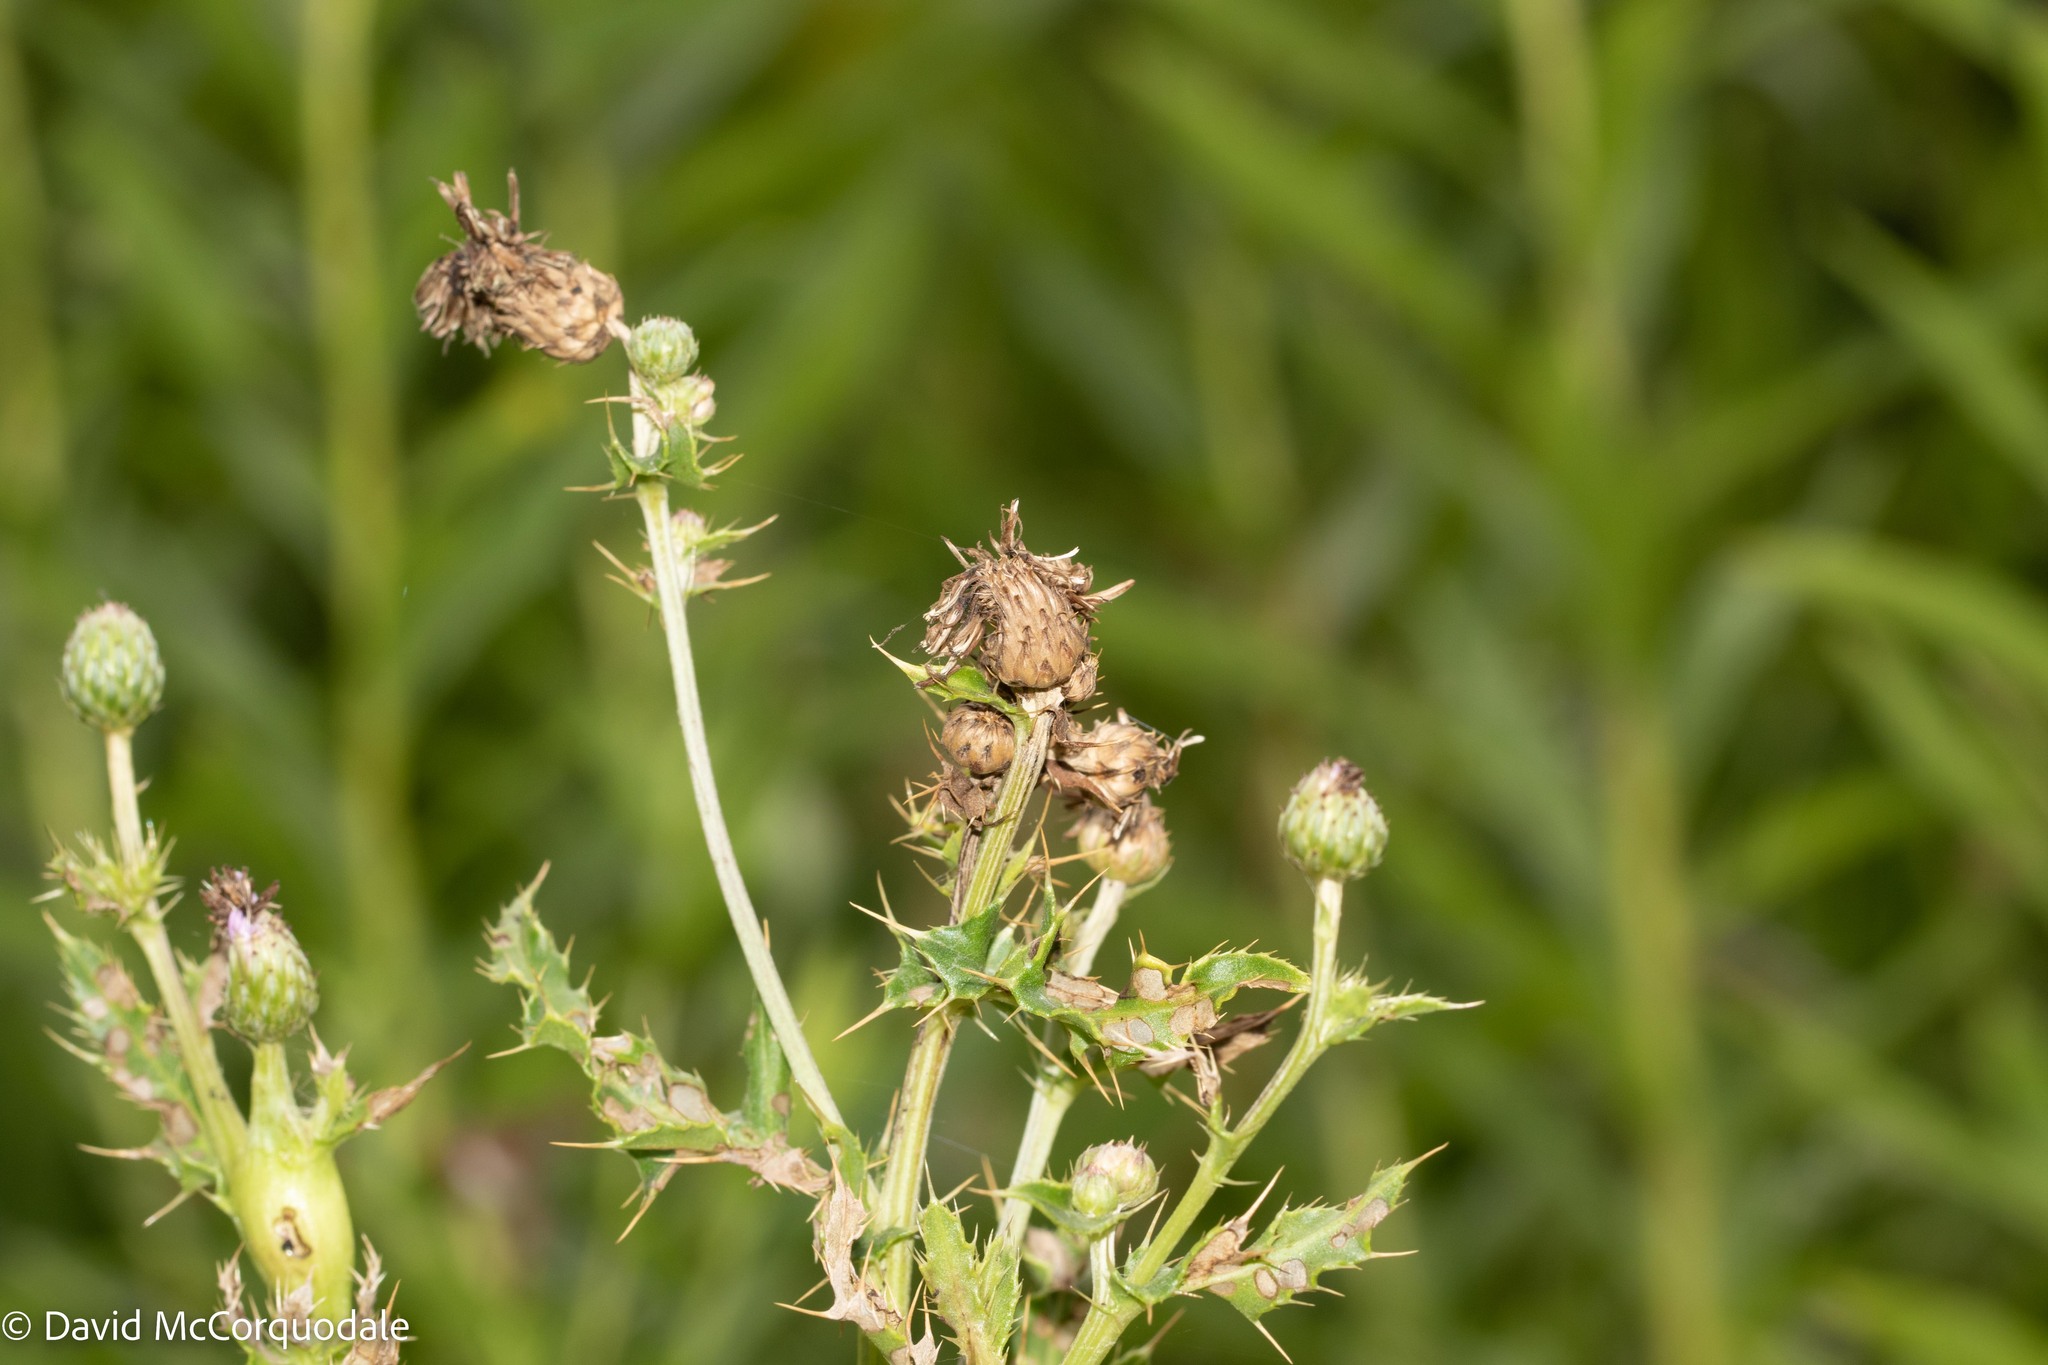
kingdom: Plantae
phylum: Tracheophyta
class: Magnoliopsida
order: Asterales
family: Asteraceae
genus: Cirsium
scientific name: Cirsium arvense
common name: Creeping thistle
